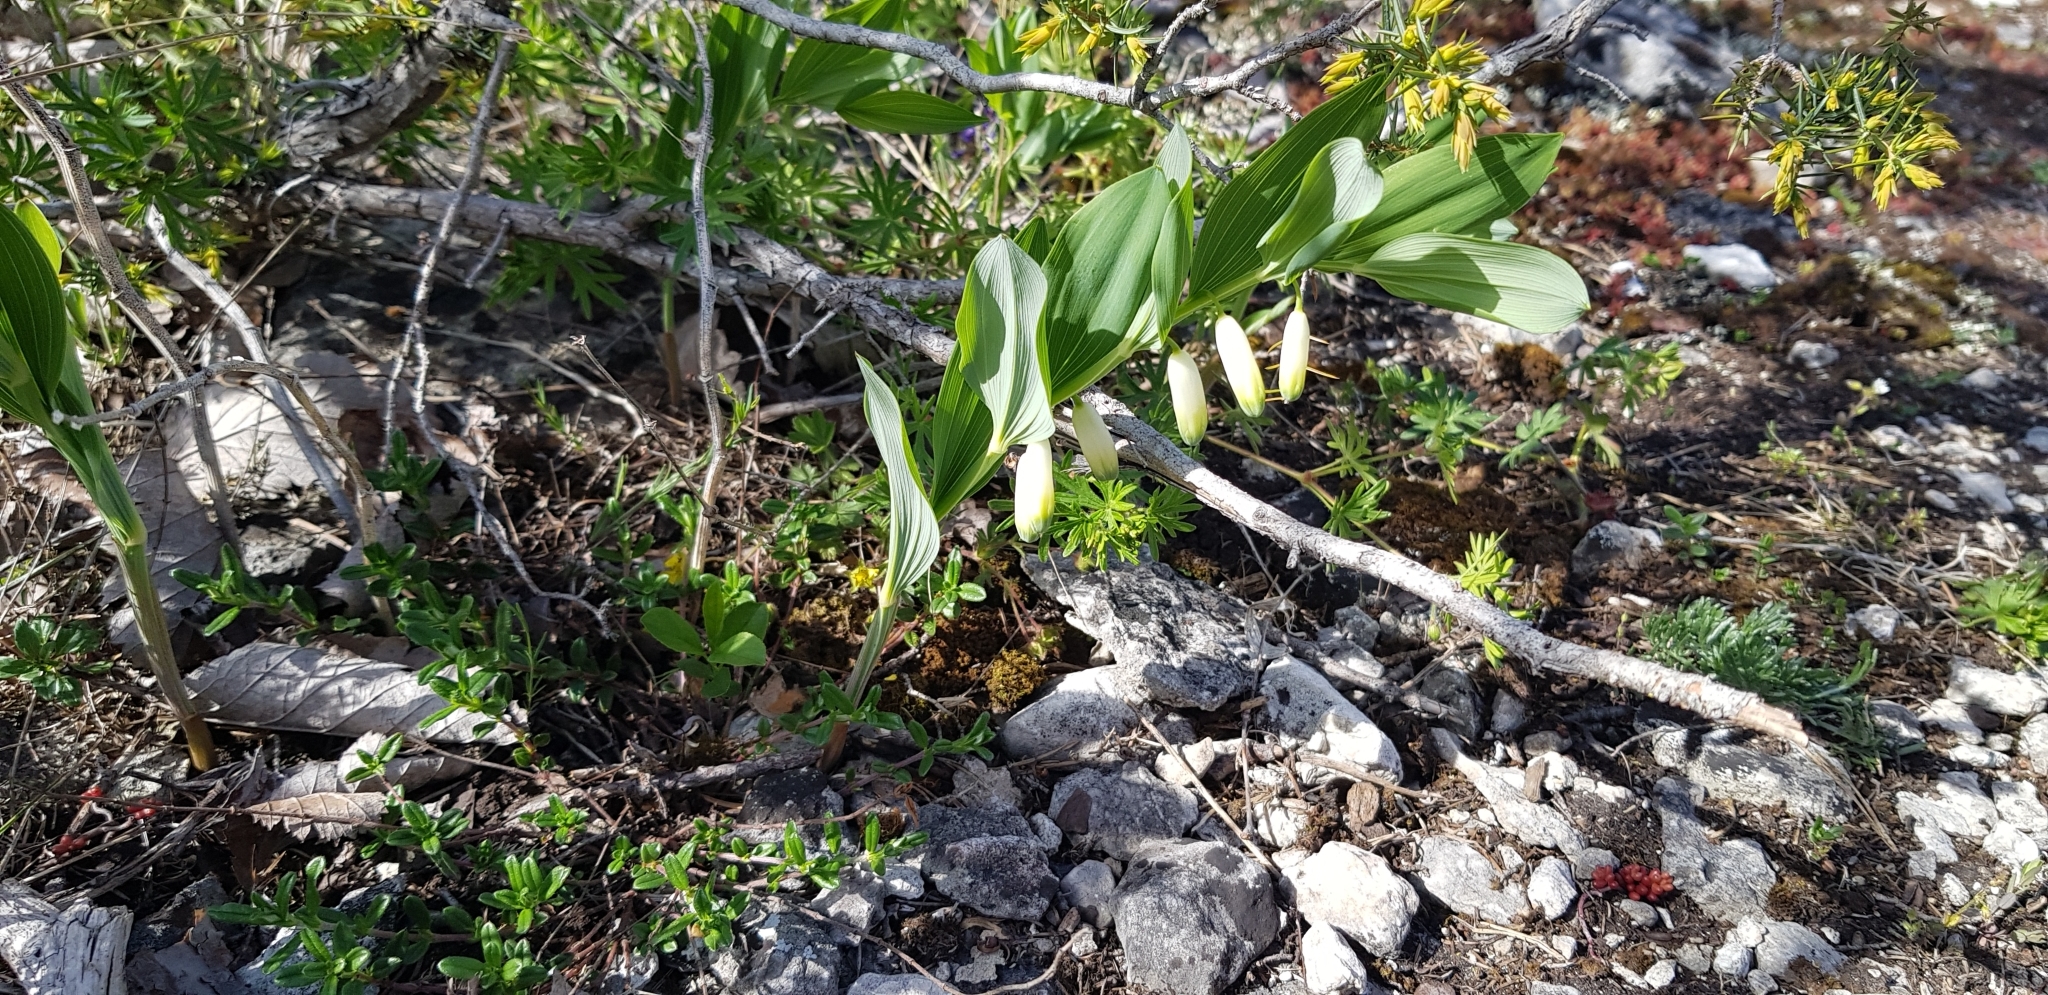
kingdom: Plantae
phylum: Tracheophyta
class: Liliopsida
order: Asparagales
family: Asparagaceae
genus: Polygonatum
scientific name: Polygonatum odoratum
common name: Angular solomon's-seal
